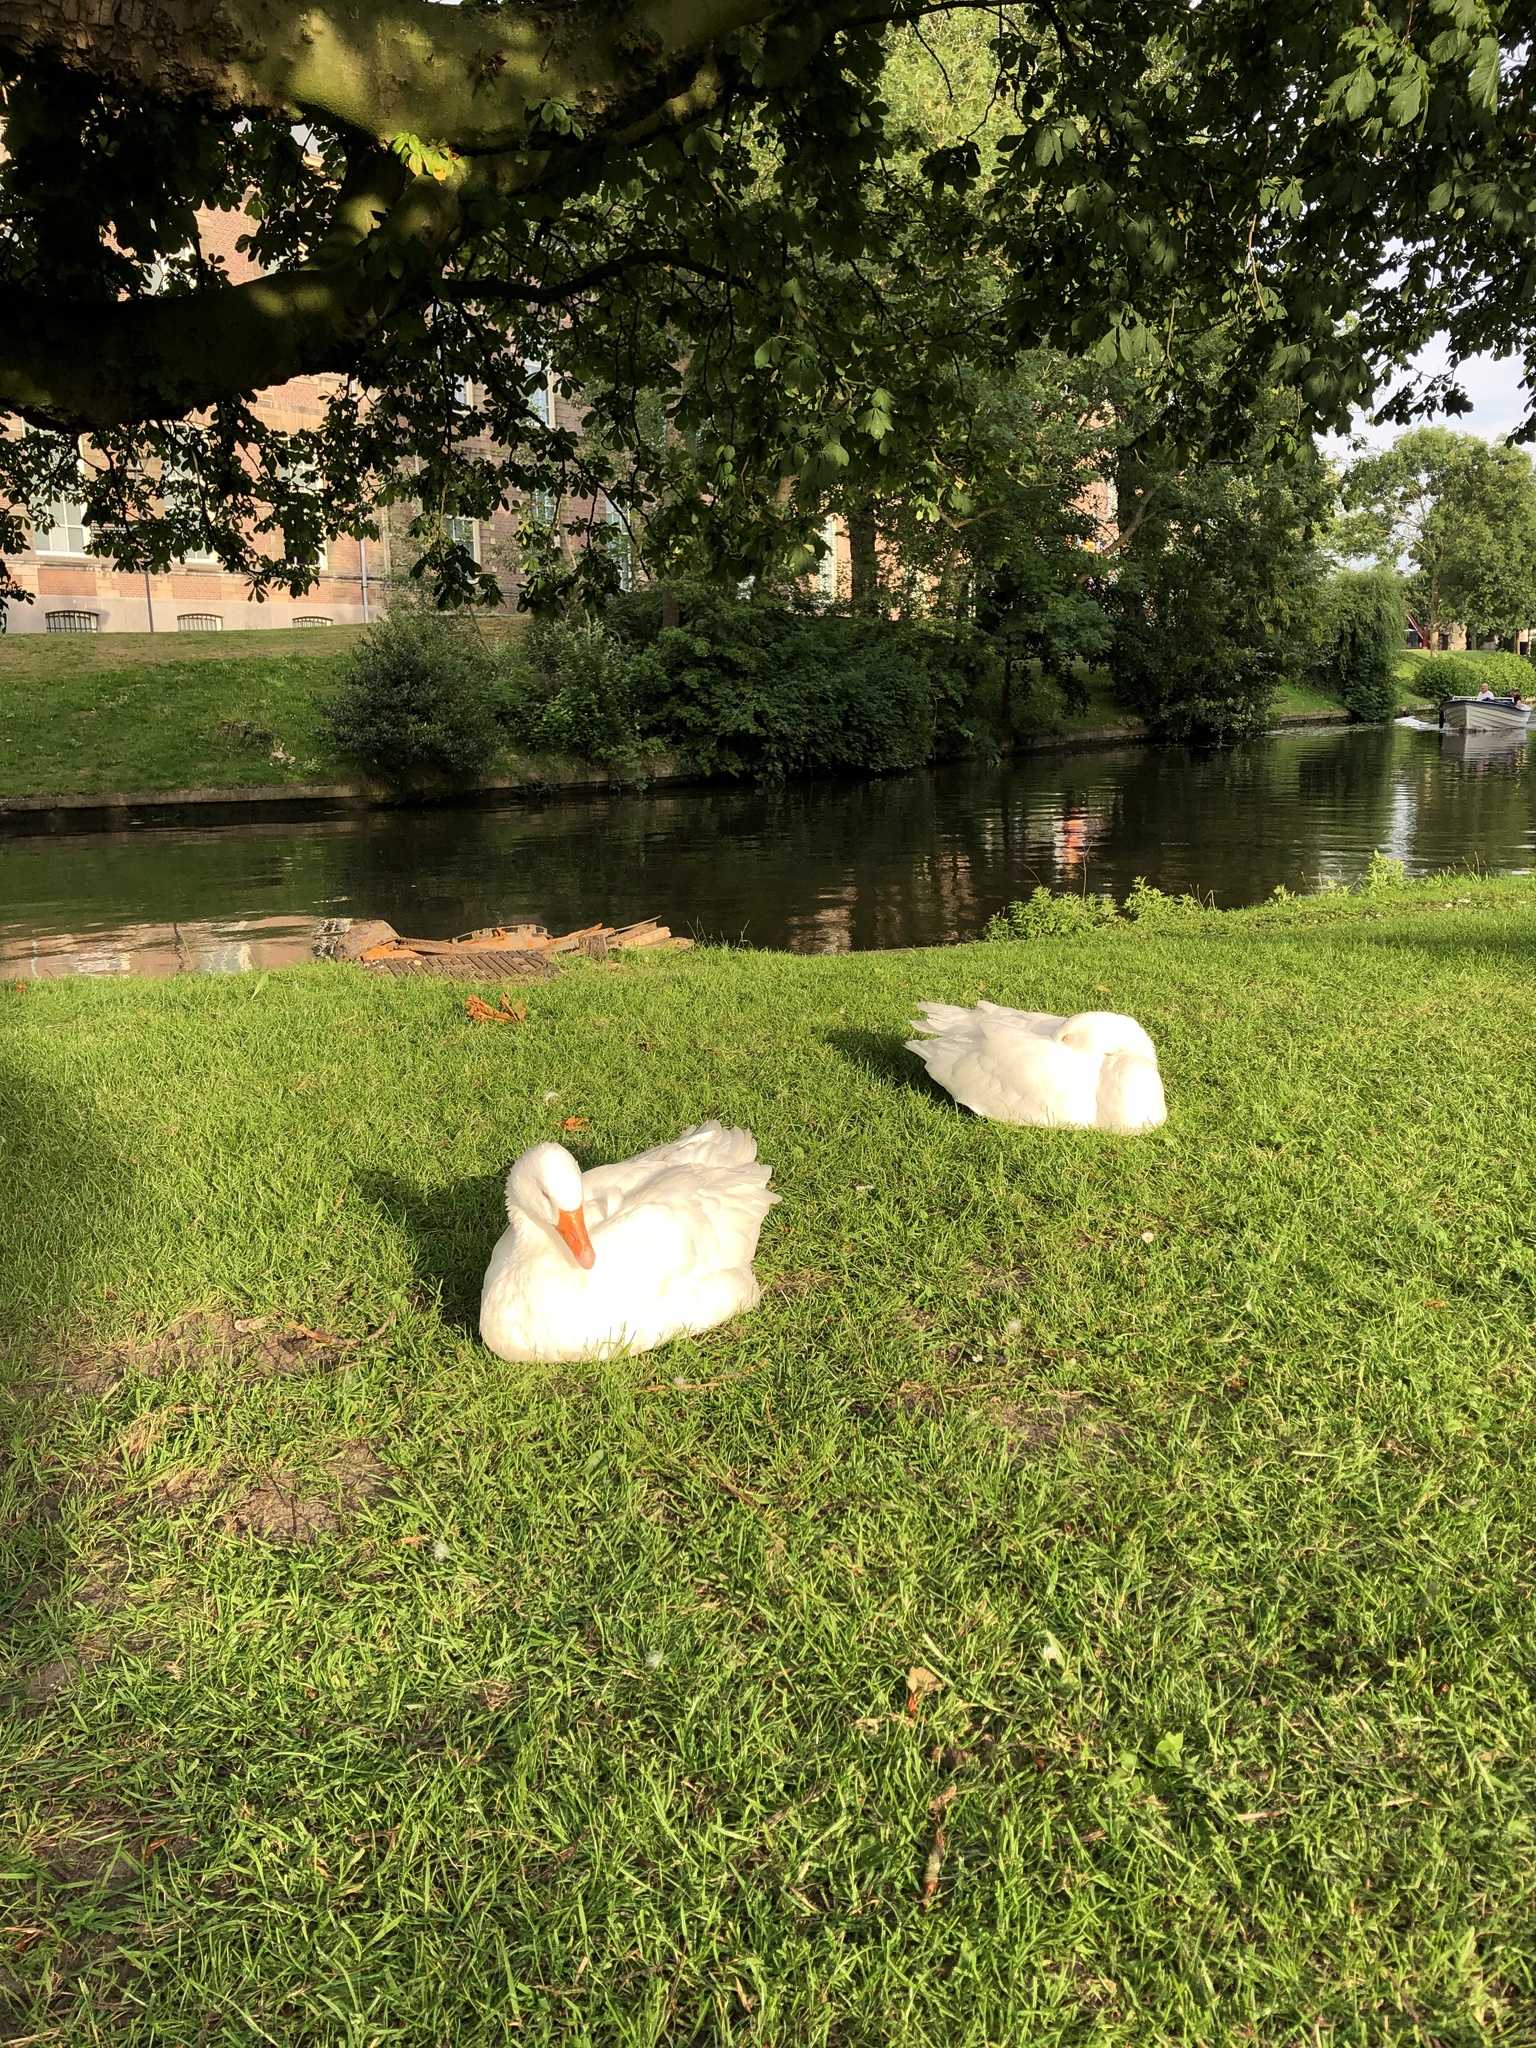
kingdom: Animalia
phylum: Chordata
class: Aves
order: Anseriformes
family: Anatidae
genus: Anser
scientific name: Anser anser
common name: Greylag goose
